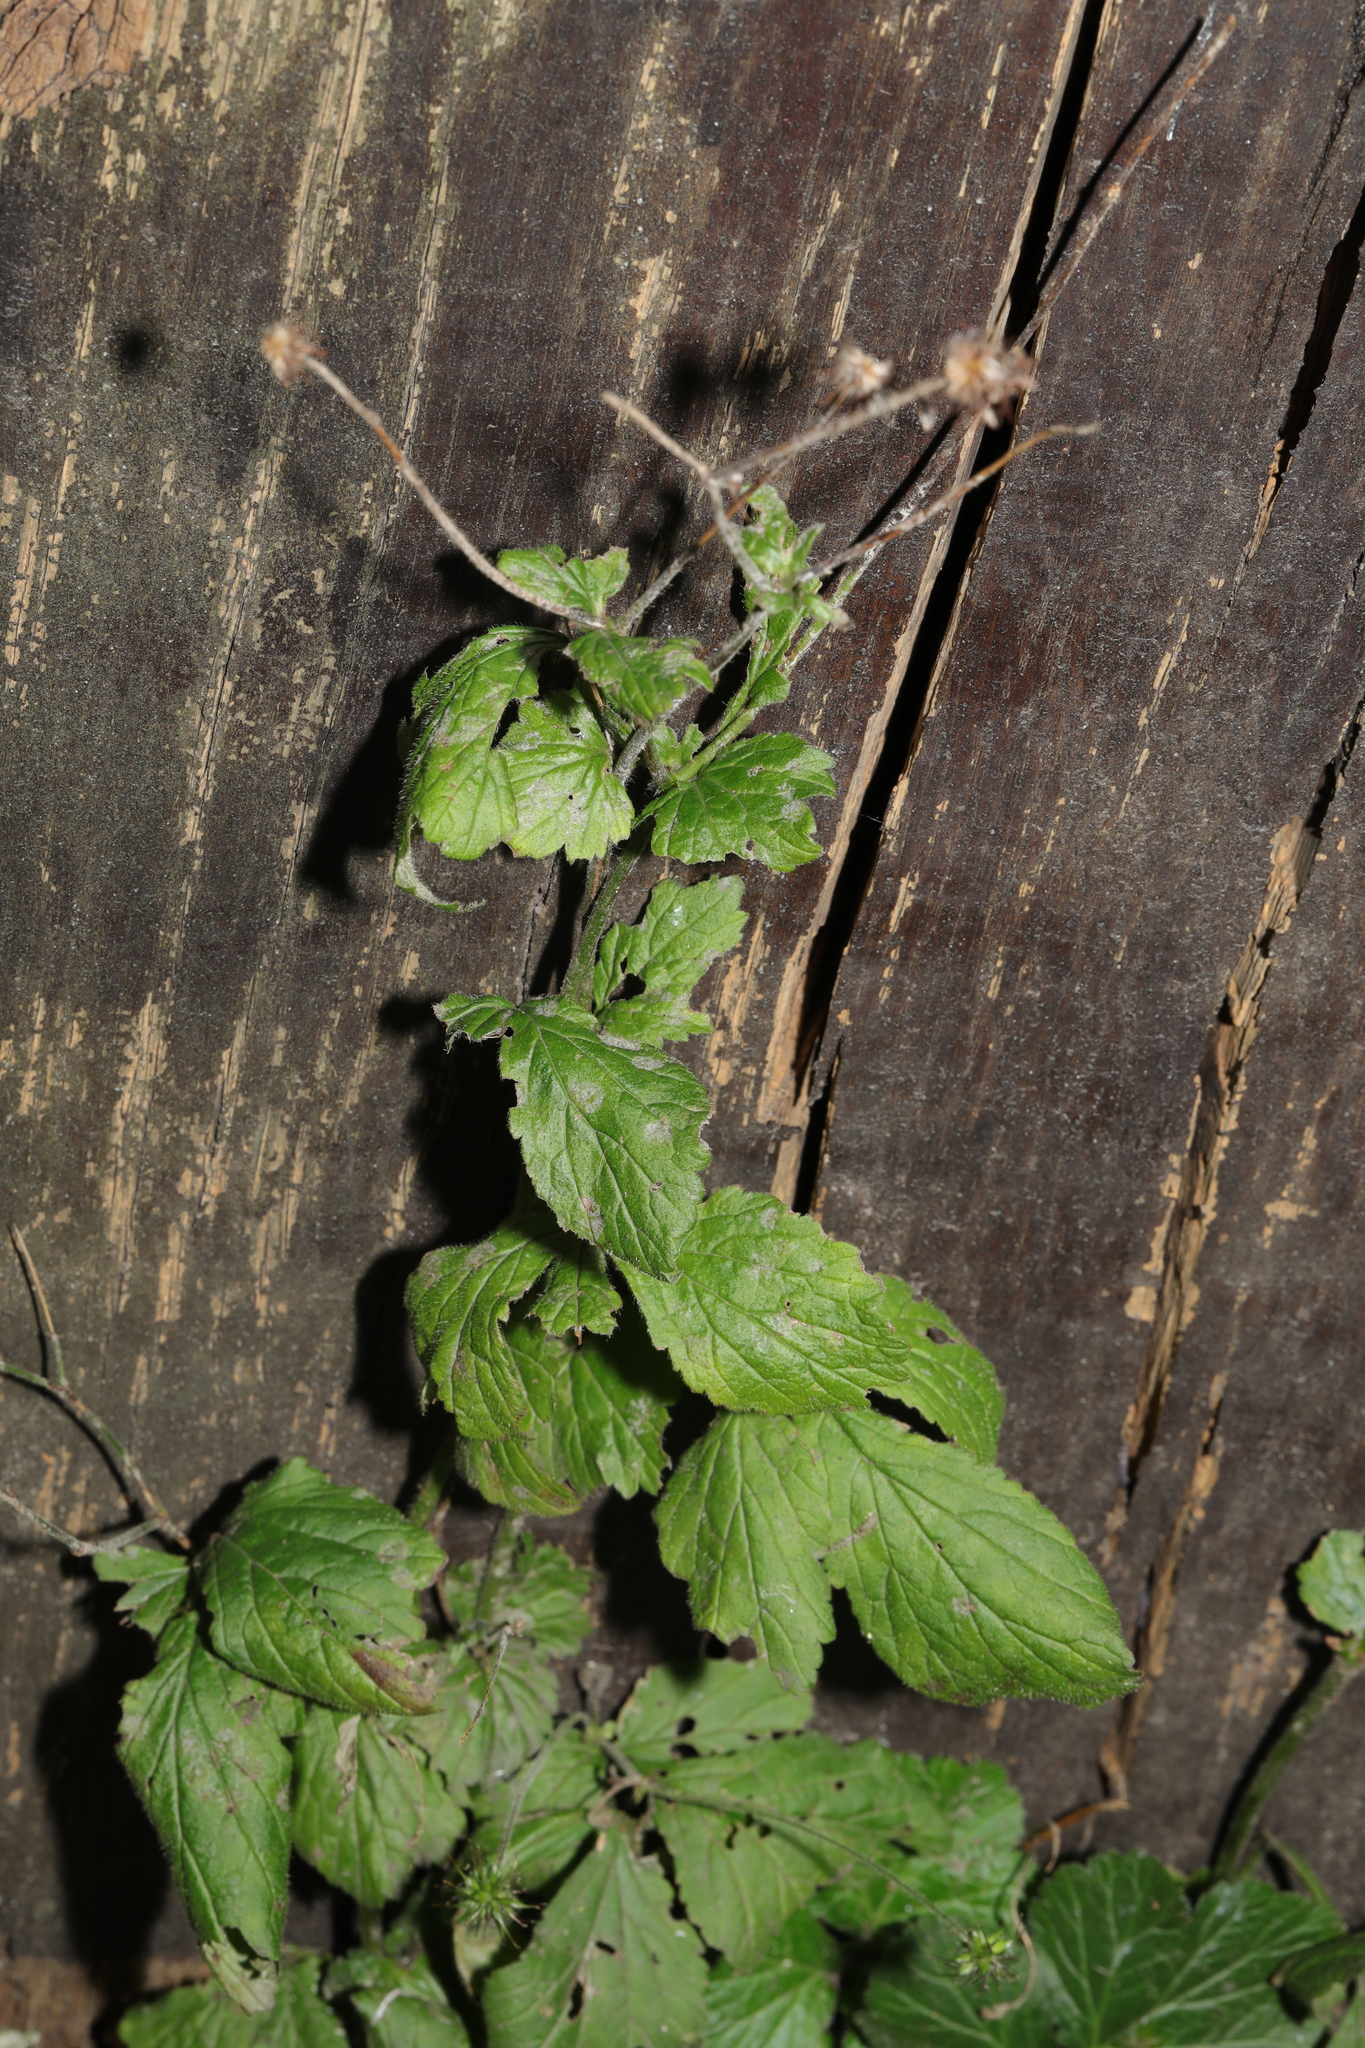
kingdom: Plantae
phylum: Tracheophyta
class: Magnoliopsida
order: Rosales
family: Rosaceae
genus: Geum
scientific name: Geum urbanum
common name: Wood avens
